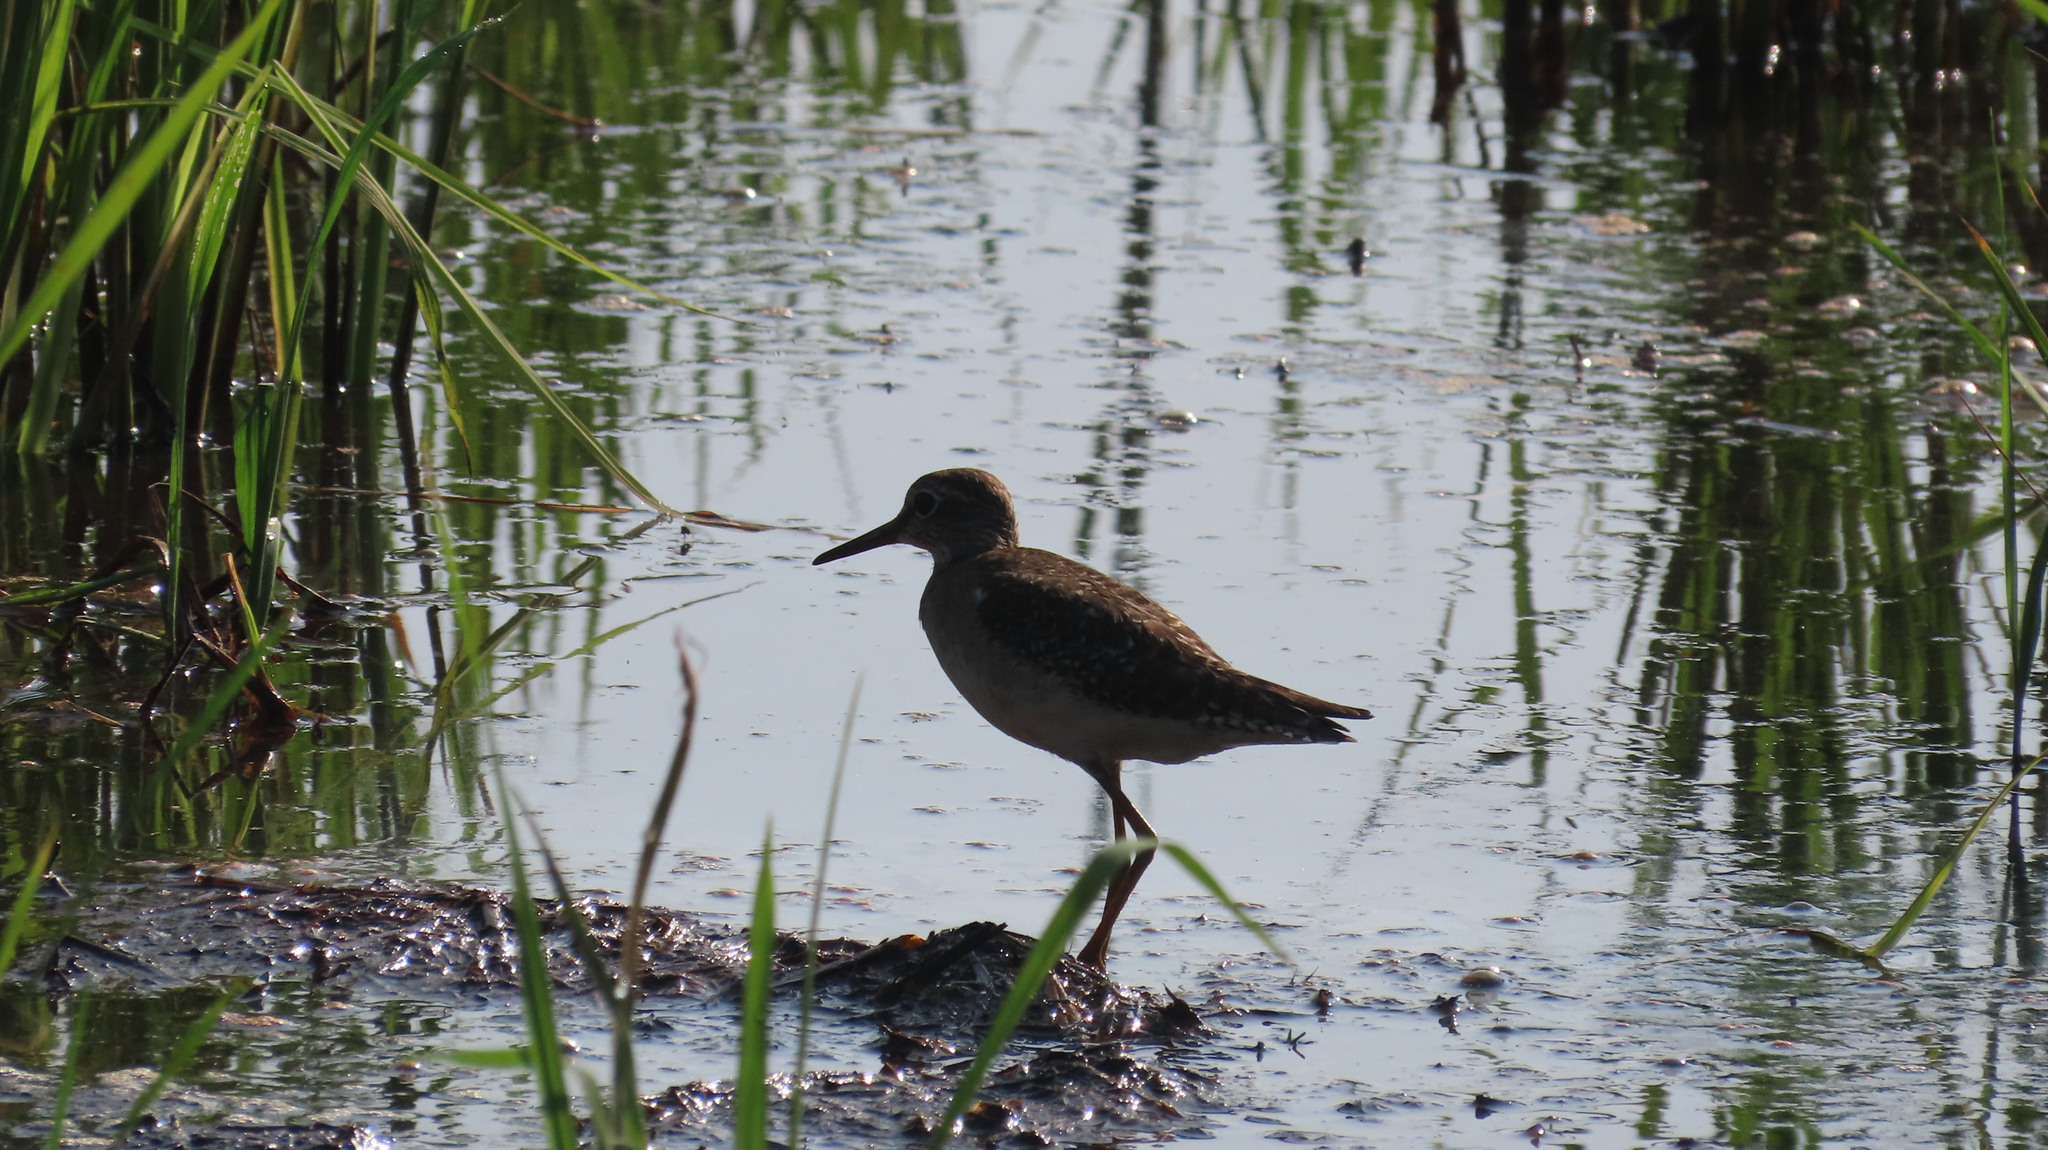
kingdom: Animalia
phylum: Chordata
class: Aves
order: Charadriiformes
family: Scolopacidae
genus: Tringa
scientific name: Tringa glareola
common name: Wood sandpiper
